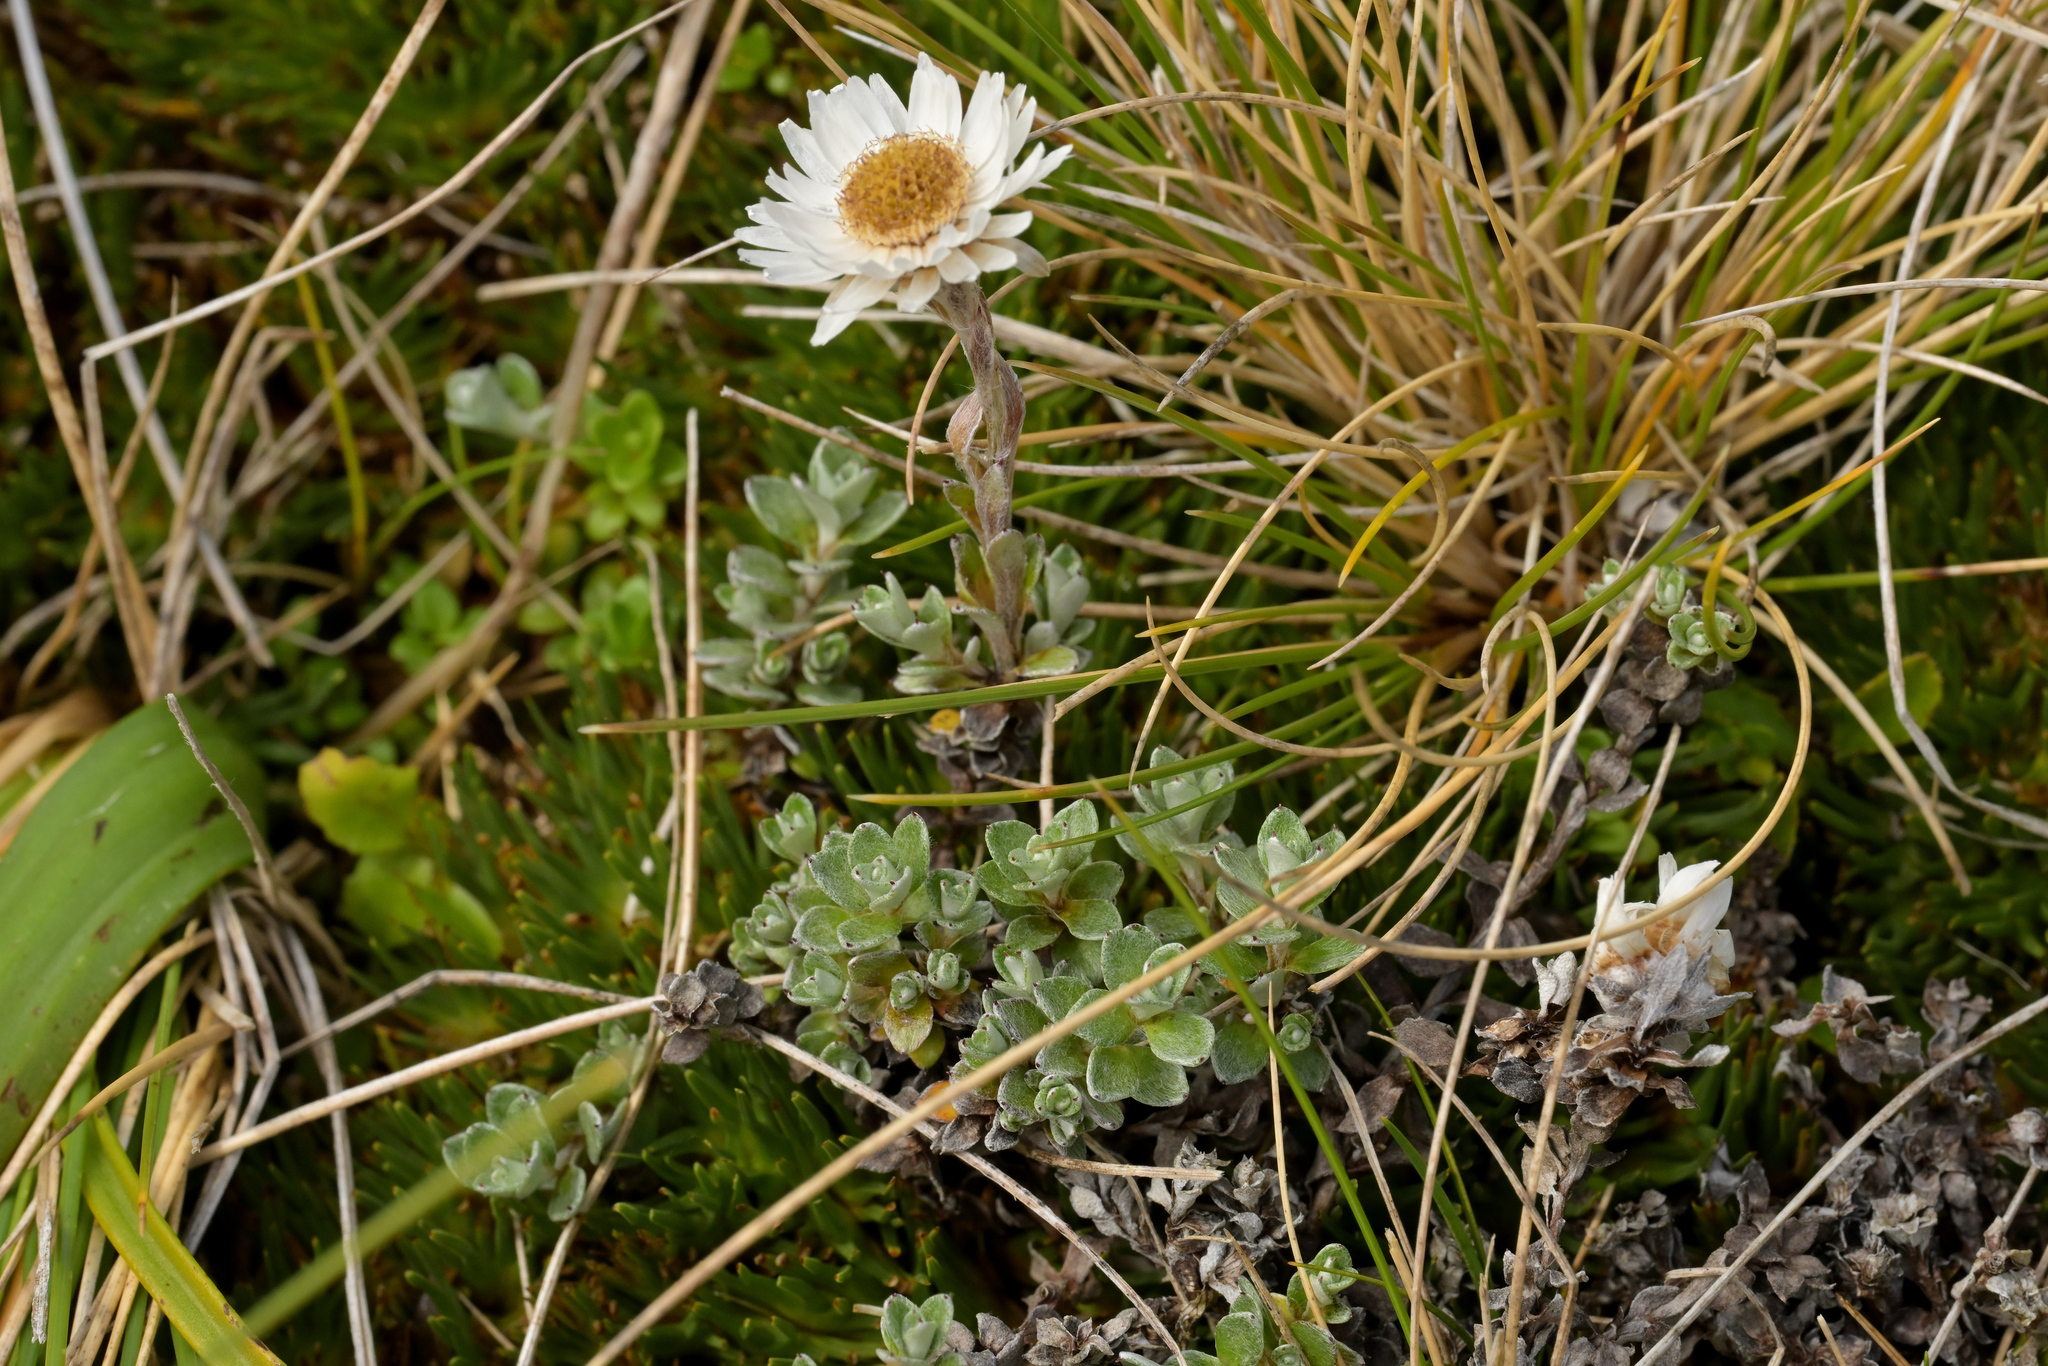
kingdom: Plantae
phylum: Tracheophyta
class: Magnoliopsida
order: Asterales
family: Asteraceae
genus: Anaphalioides
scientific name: Anaphalioides bellidioides
